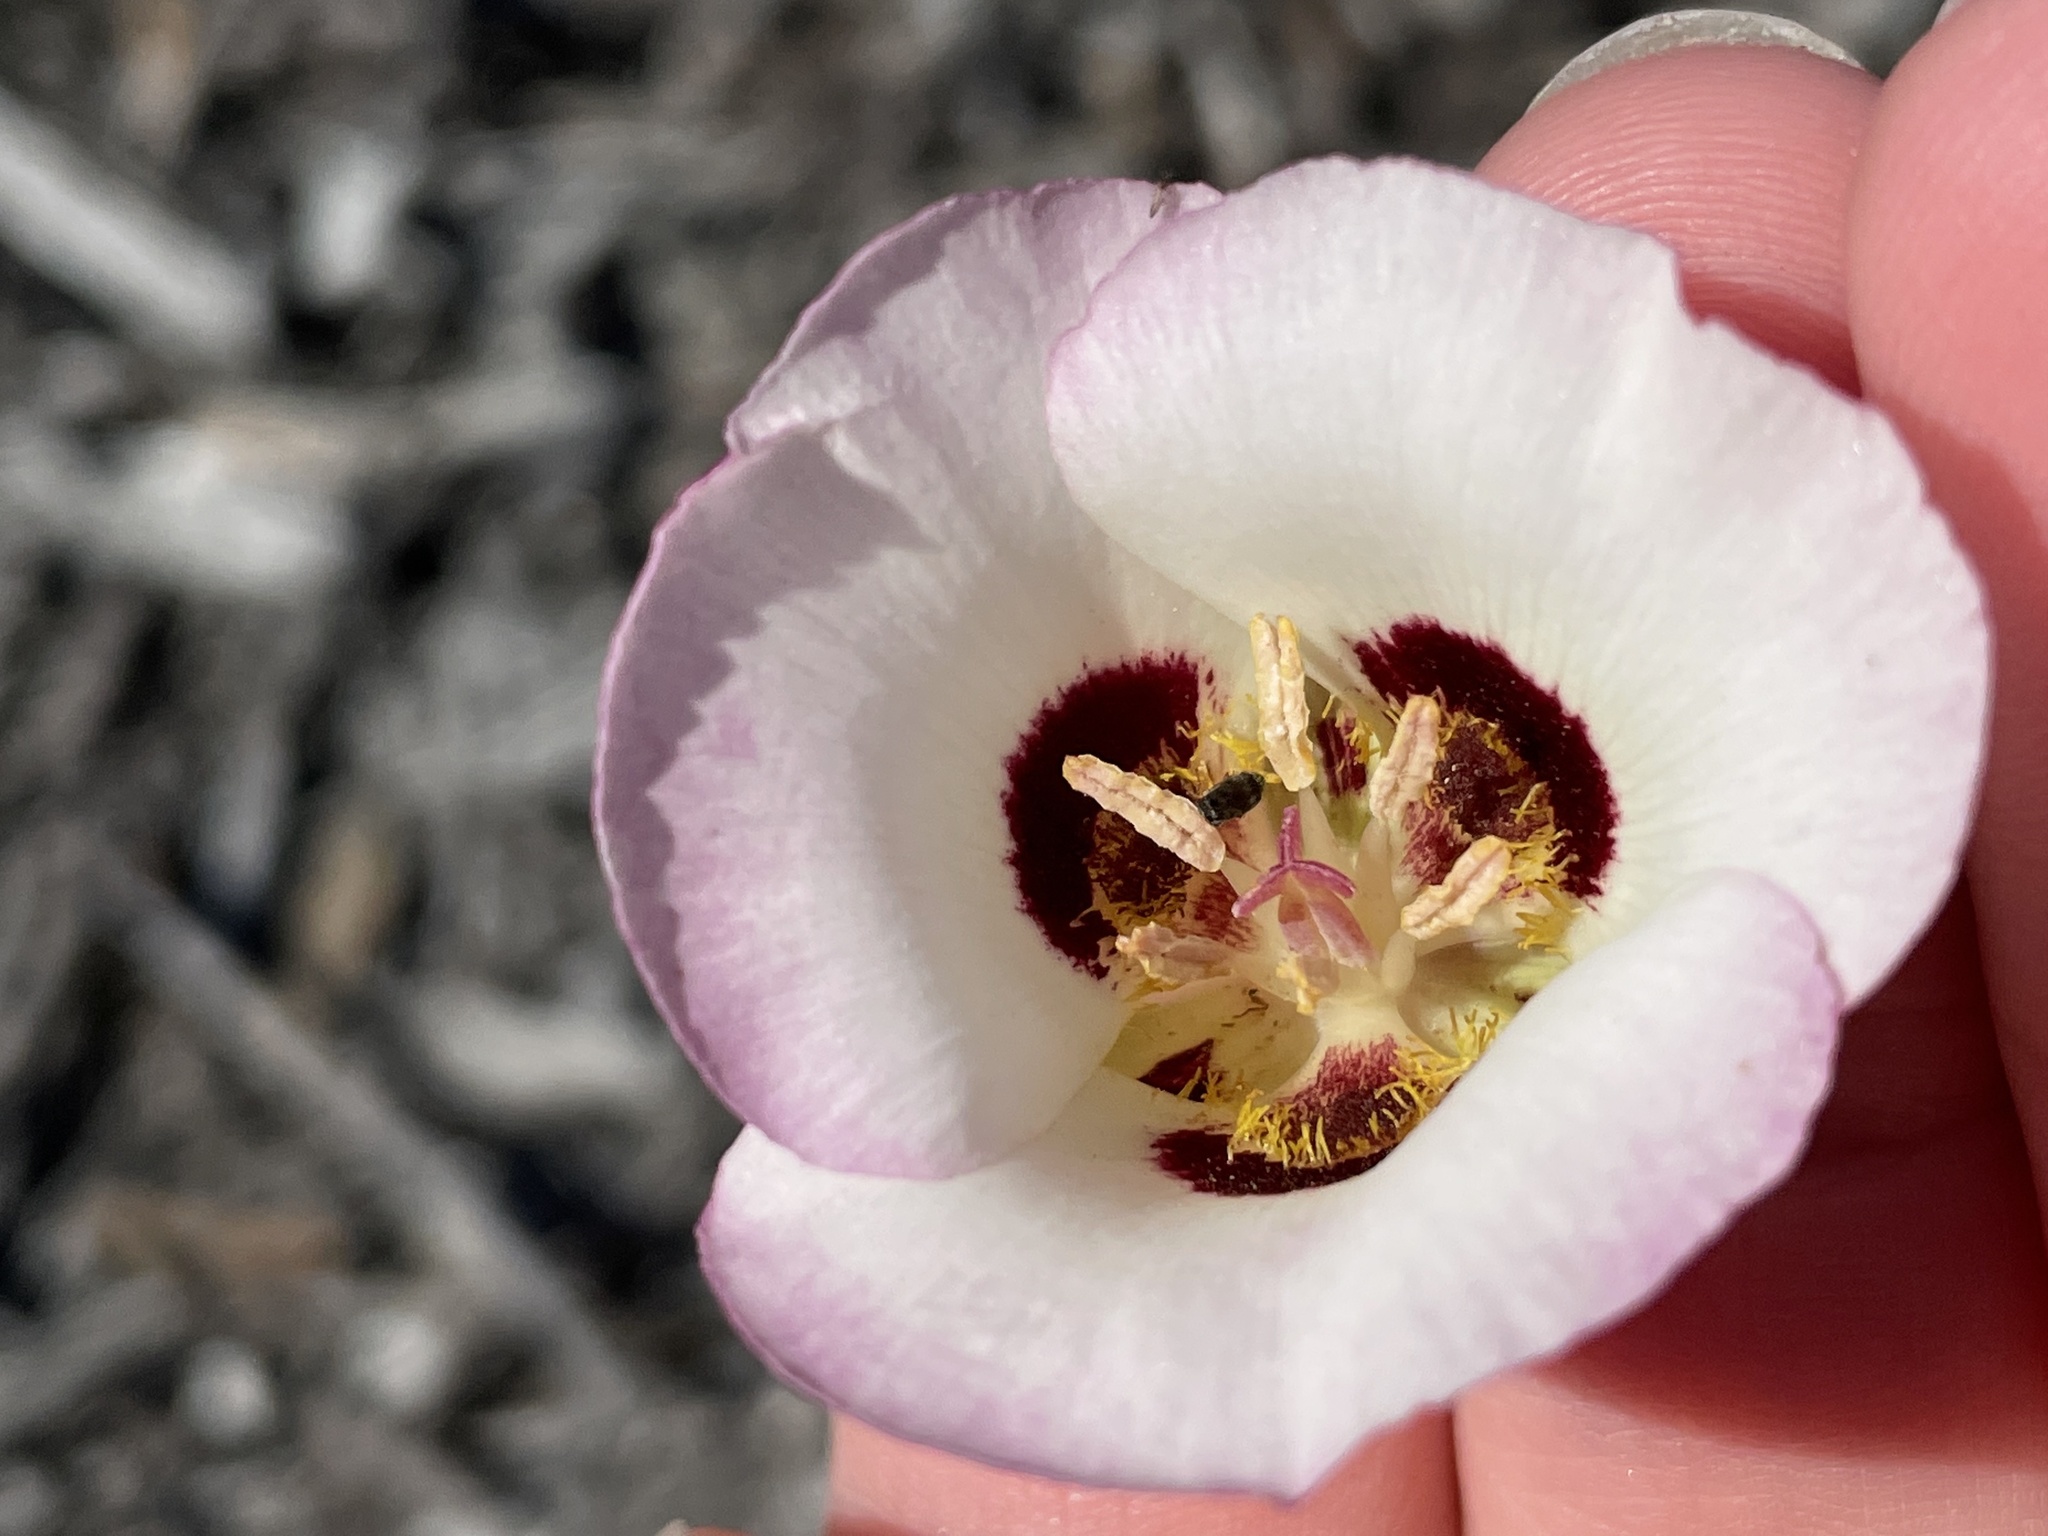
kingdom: Plantae
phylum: Tracheophyta
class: Liliopsida
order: Liliales
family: Liliaceae
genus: Calochortus
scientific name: Calochortus dunnii
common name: Dunn's mariposa-lily
